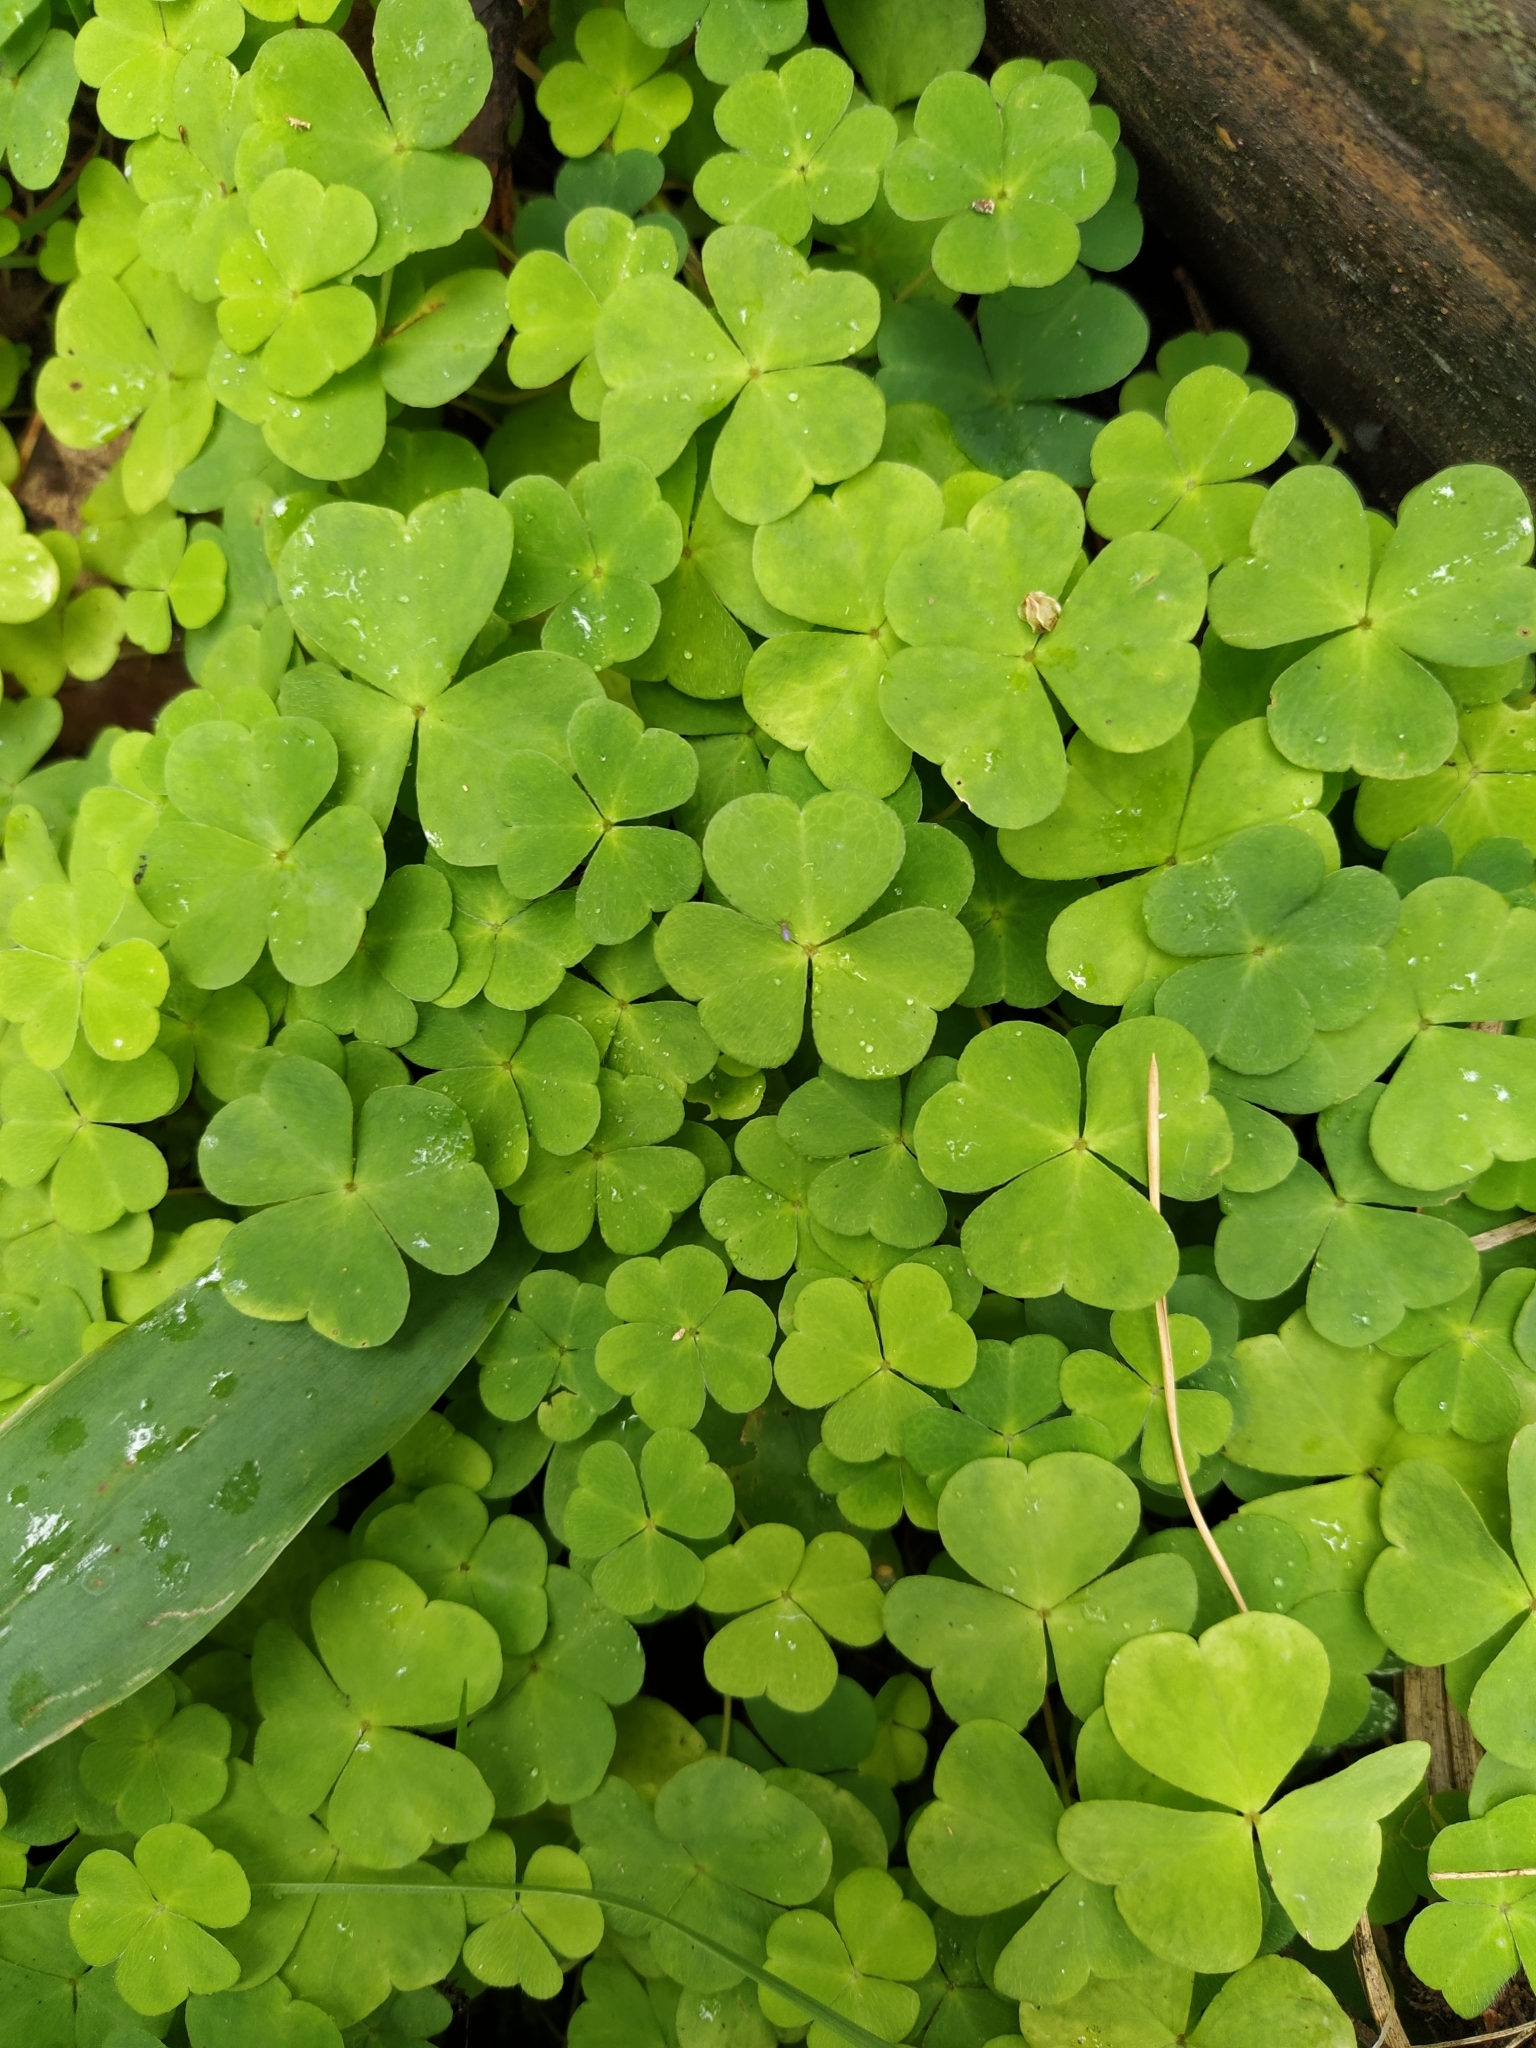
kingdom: Plantae
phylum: Tracheophyta
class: Magnoliopsida
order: Oxalidales
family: Oxalidaceae
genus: Oxalis
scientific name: Oxalis acetosella
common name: Wood-sorrel
